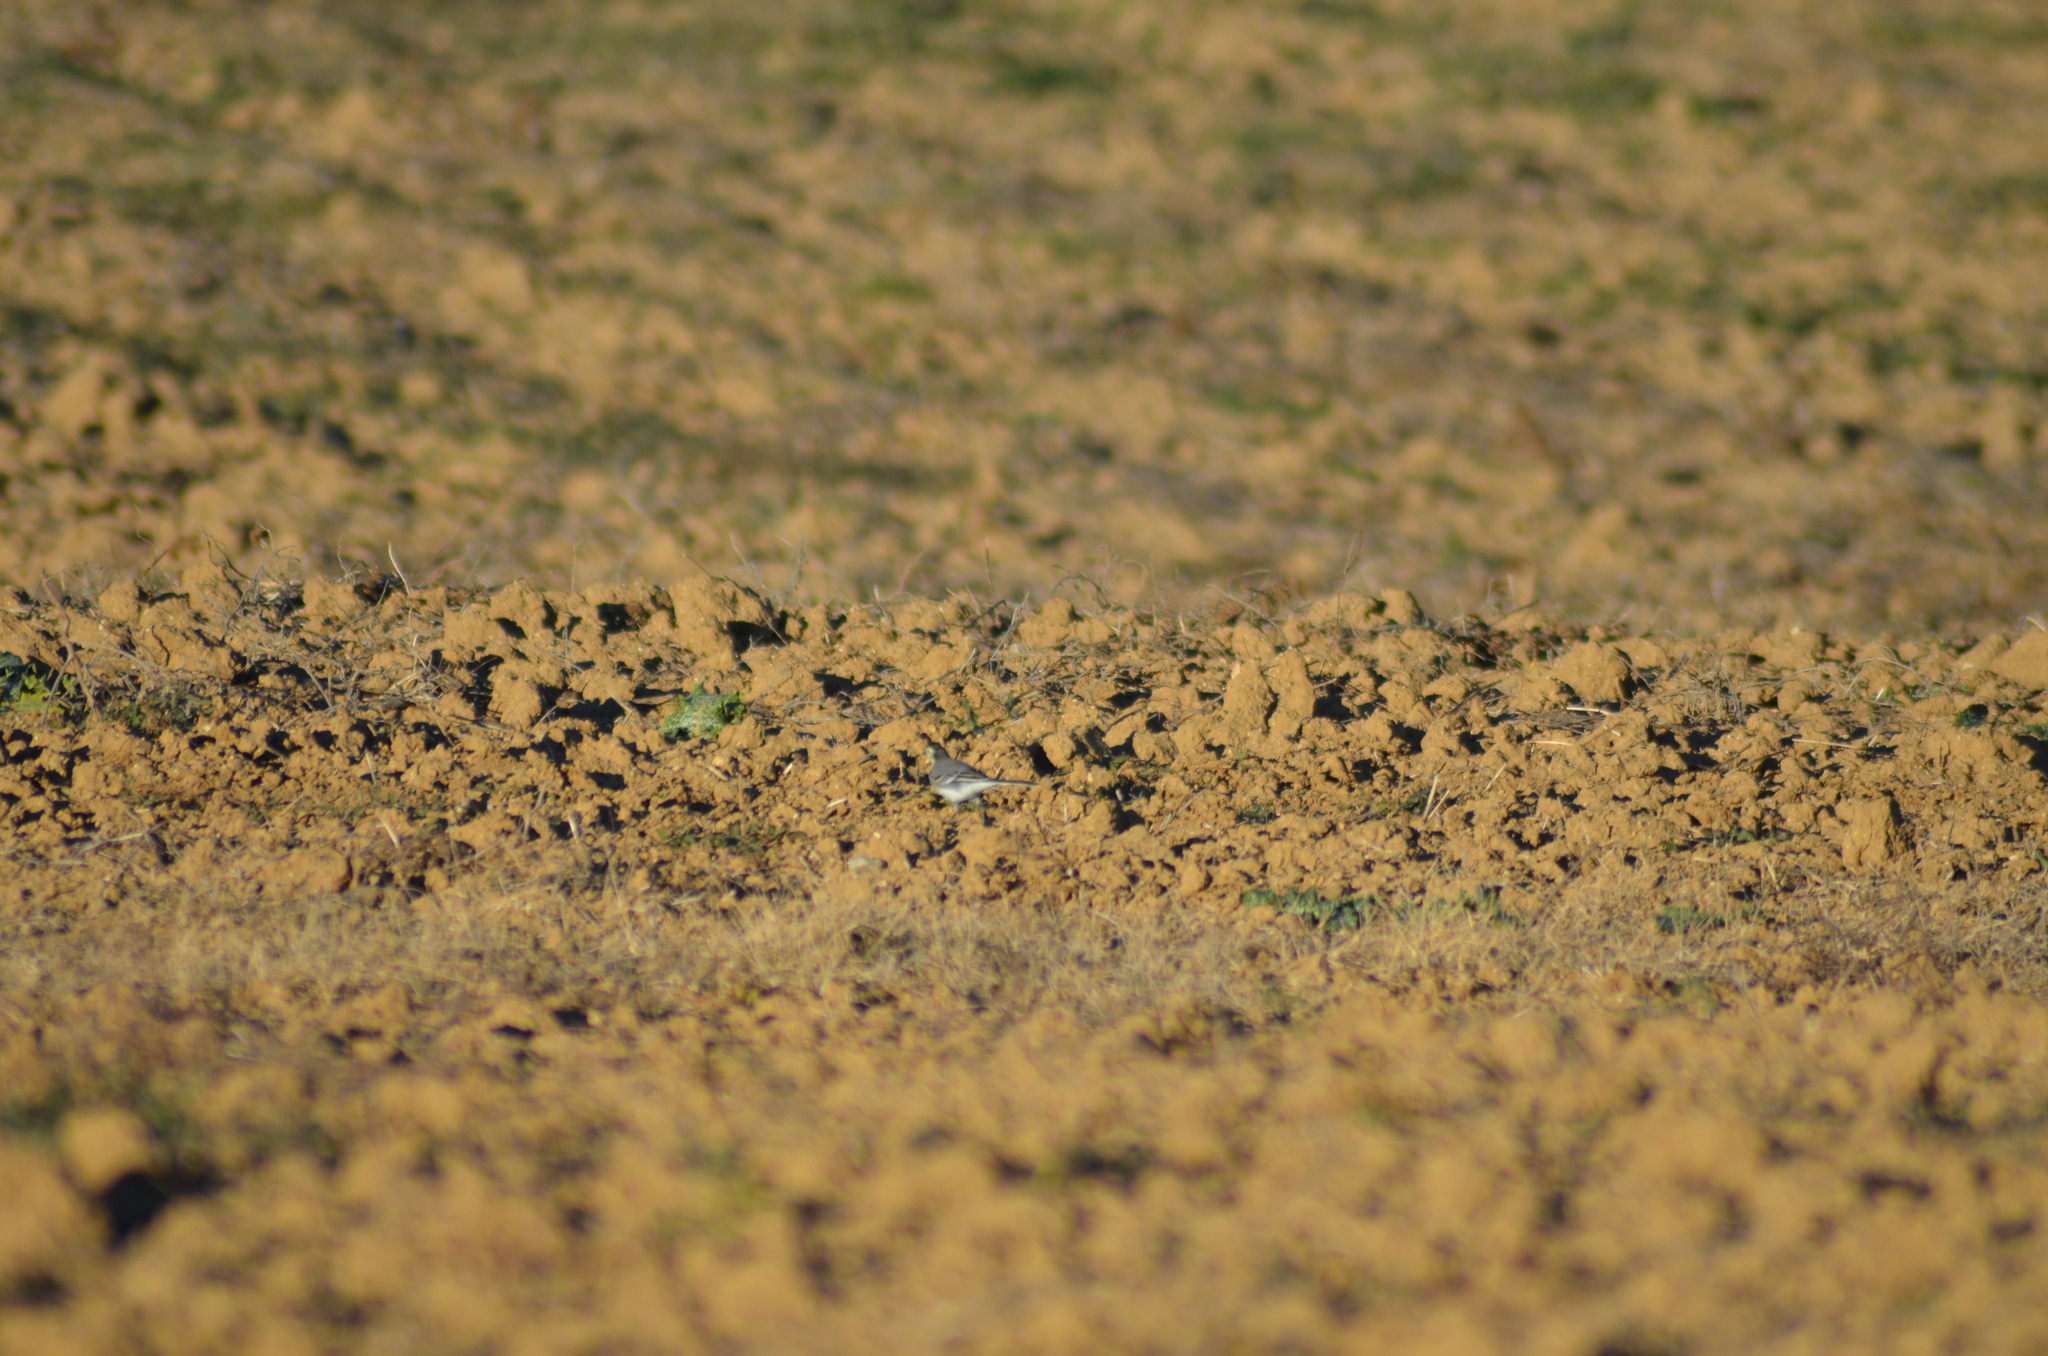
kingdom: Animalia
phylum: Chordata
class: Aves
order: Passeriformes
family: Motacillidae
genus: Motacilla
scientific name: Motacilla alba
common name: White wagtail
